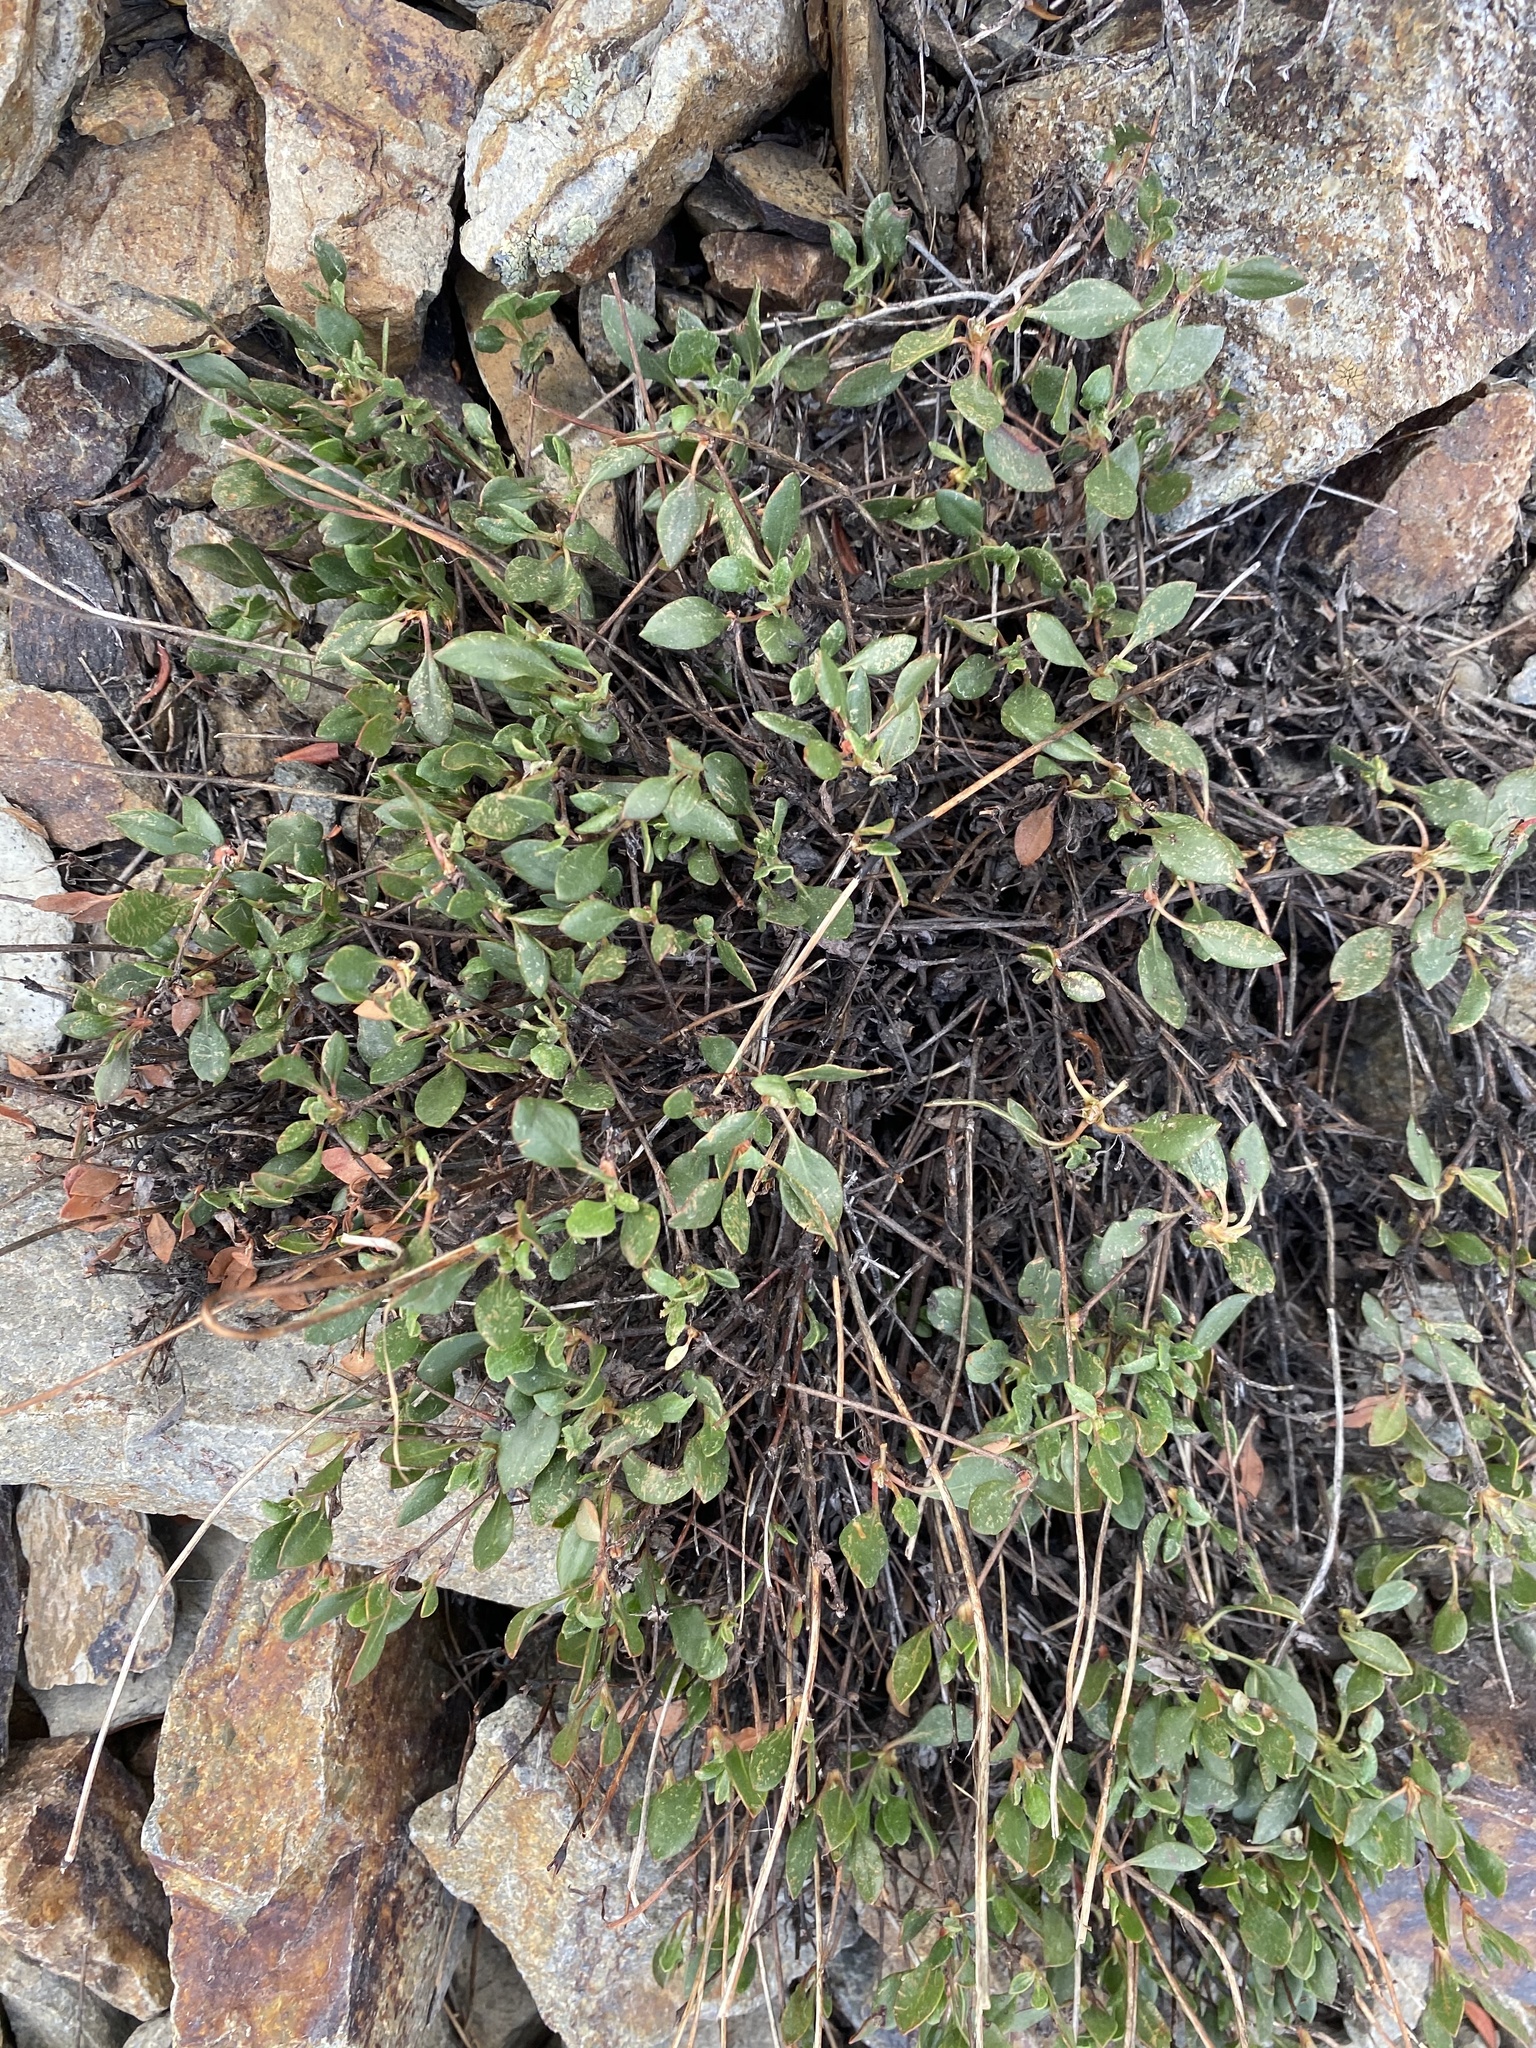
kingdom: Plantae
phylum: Tracheophyta
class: Magnoliopsida
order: Caryophyllales
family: Polygonaceae
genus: Eriogonum
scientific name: Eriogonum umbellatum
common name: Sulfur-buckwheat
